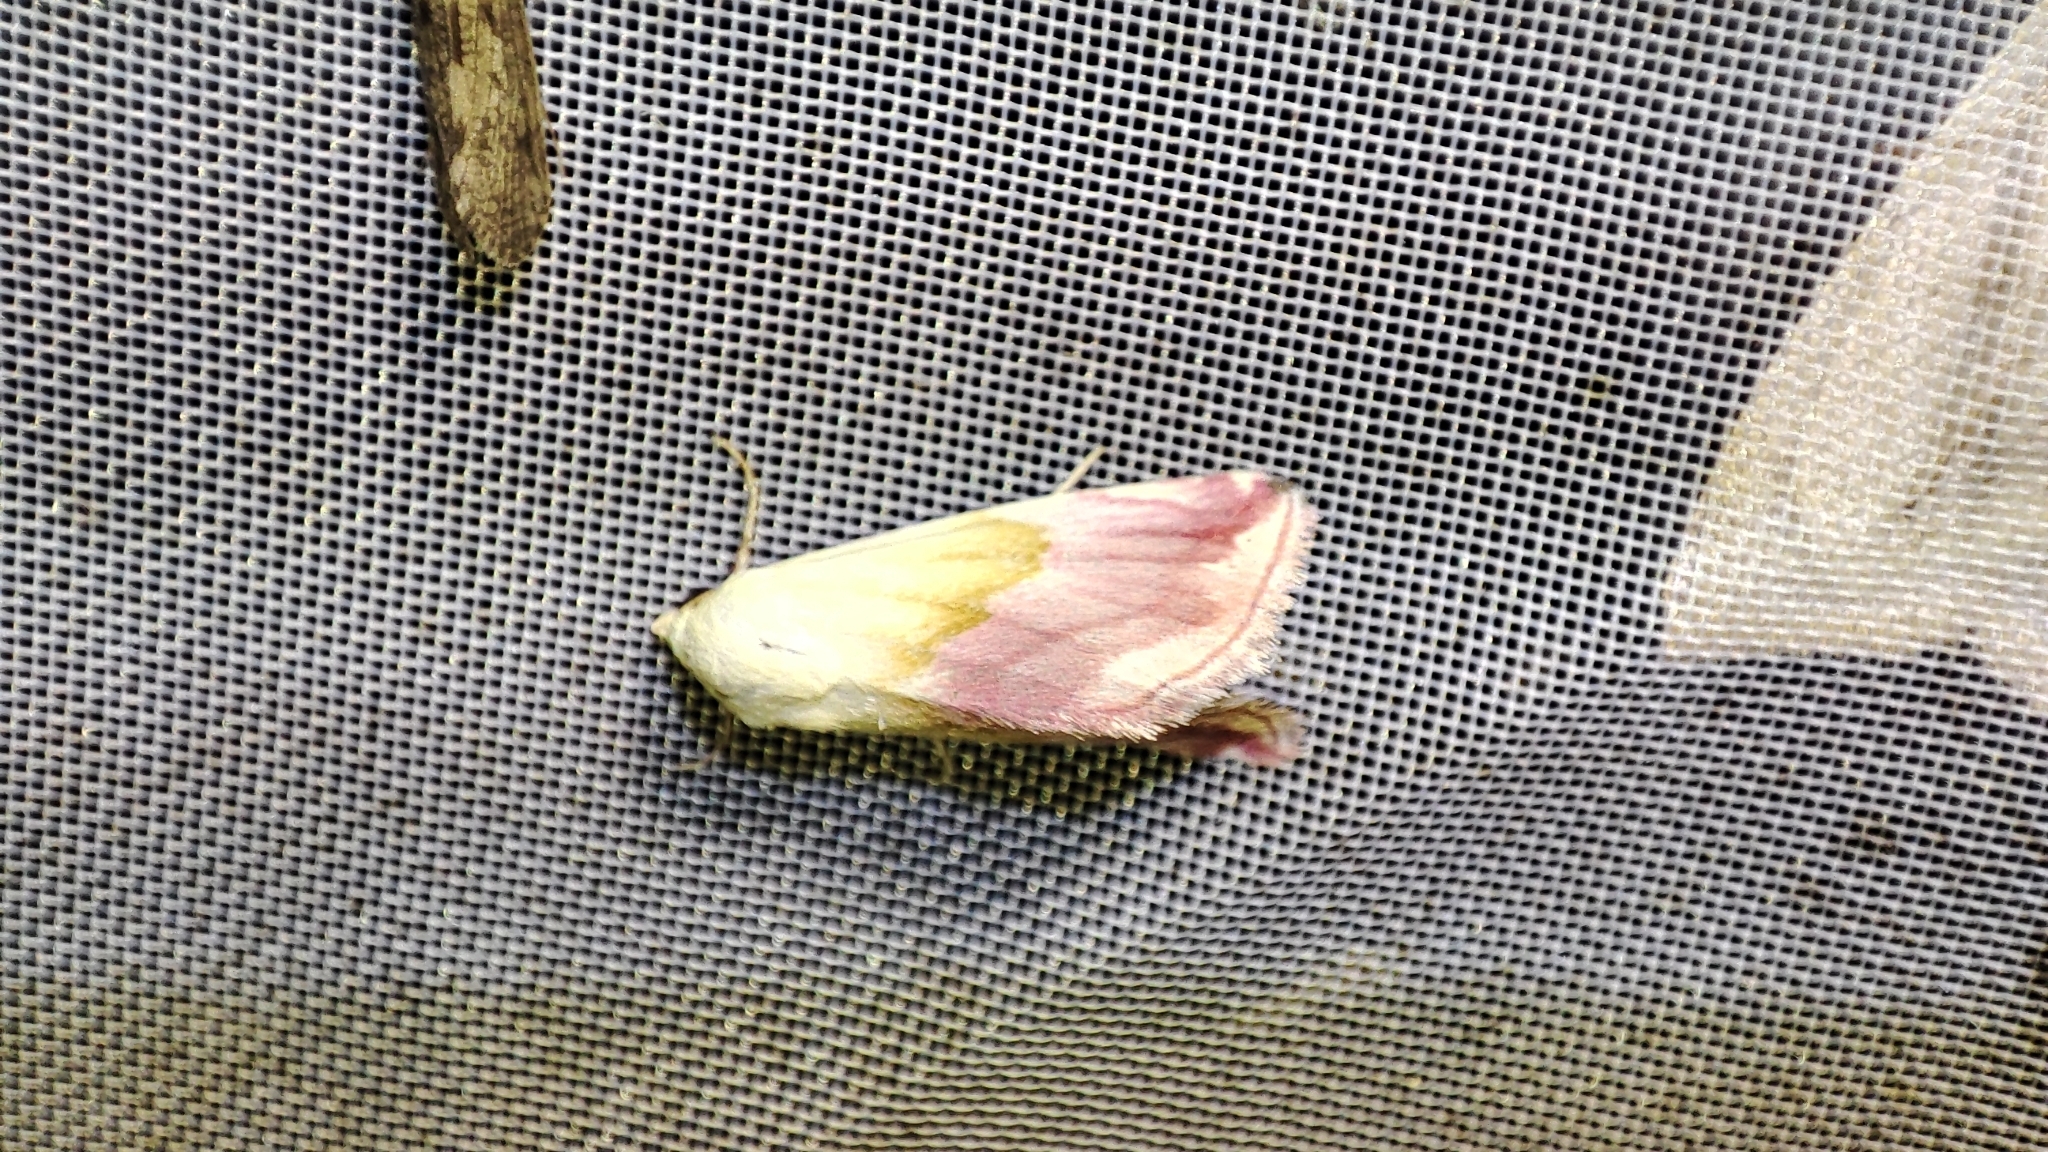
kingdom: Animalia
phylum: Arthropoda
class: Insecta
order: Lepidoptera
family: Noctuidae
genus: Eublemma
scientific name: Eublemma purpurina
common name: Beautiful marbled
